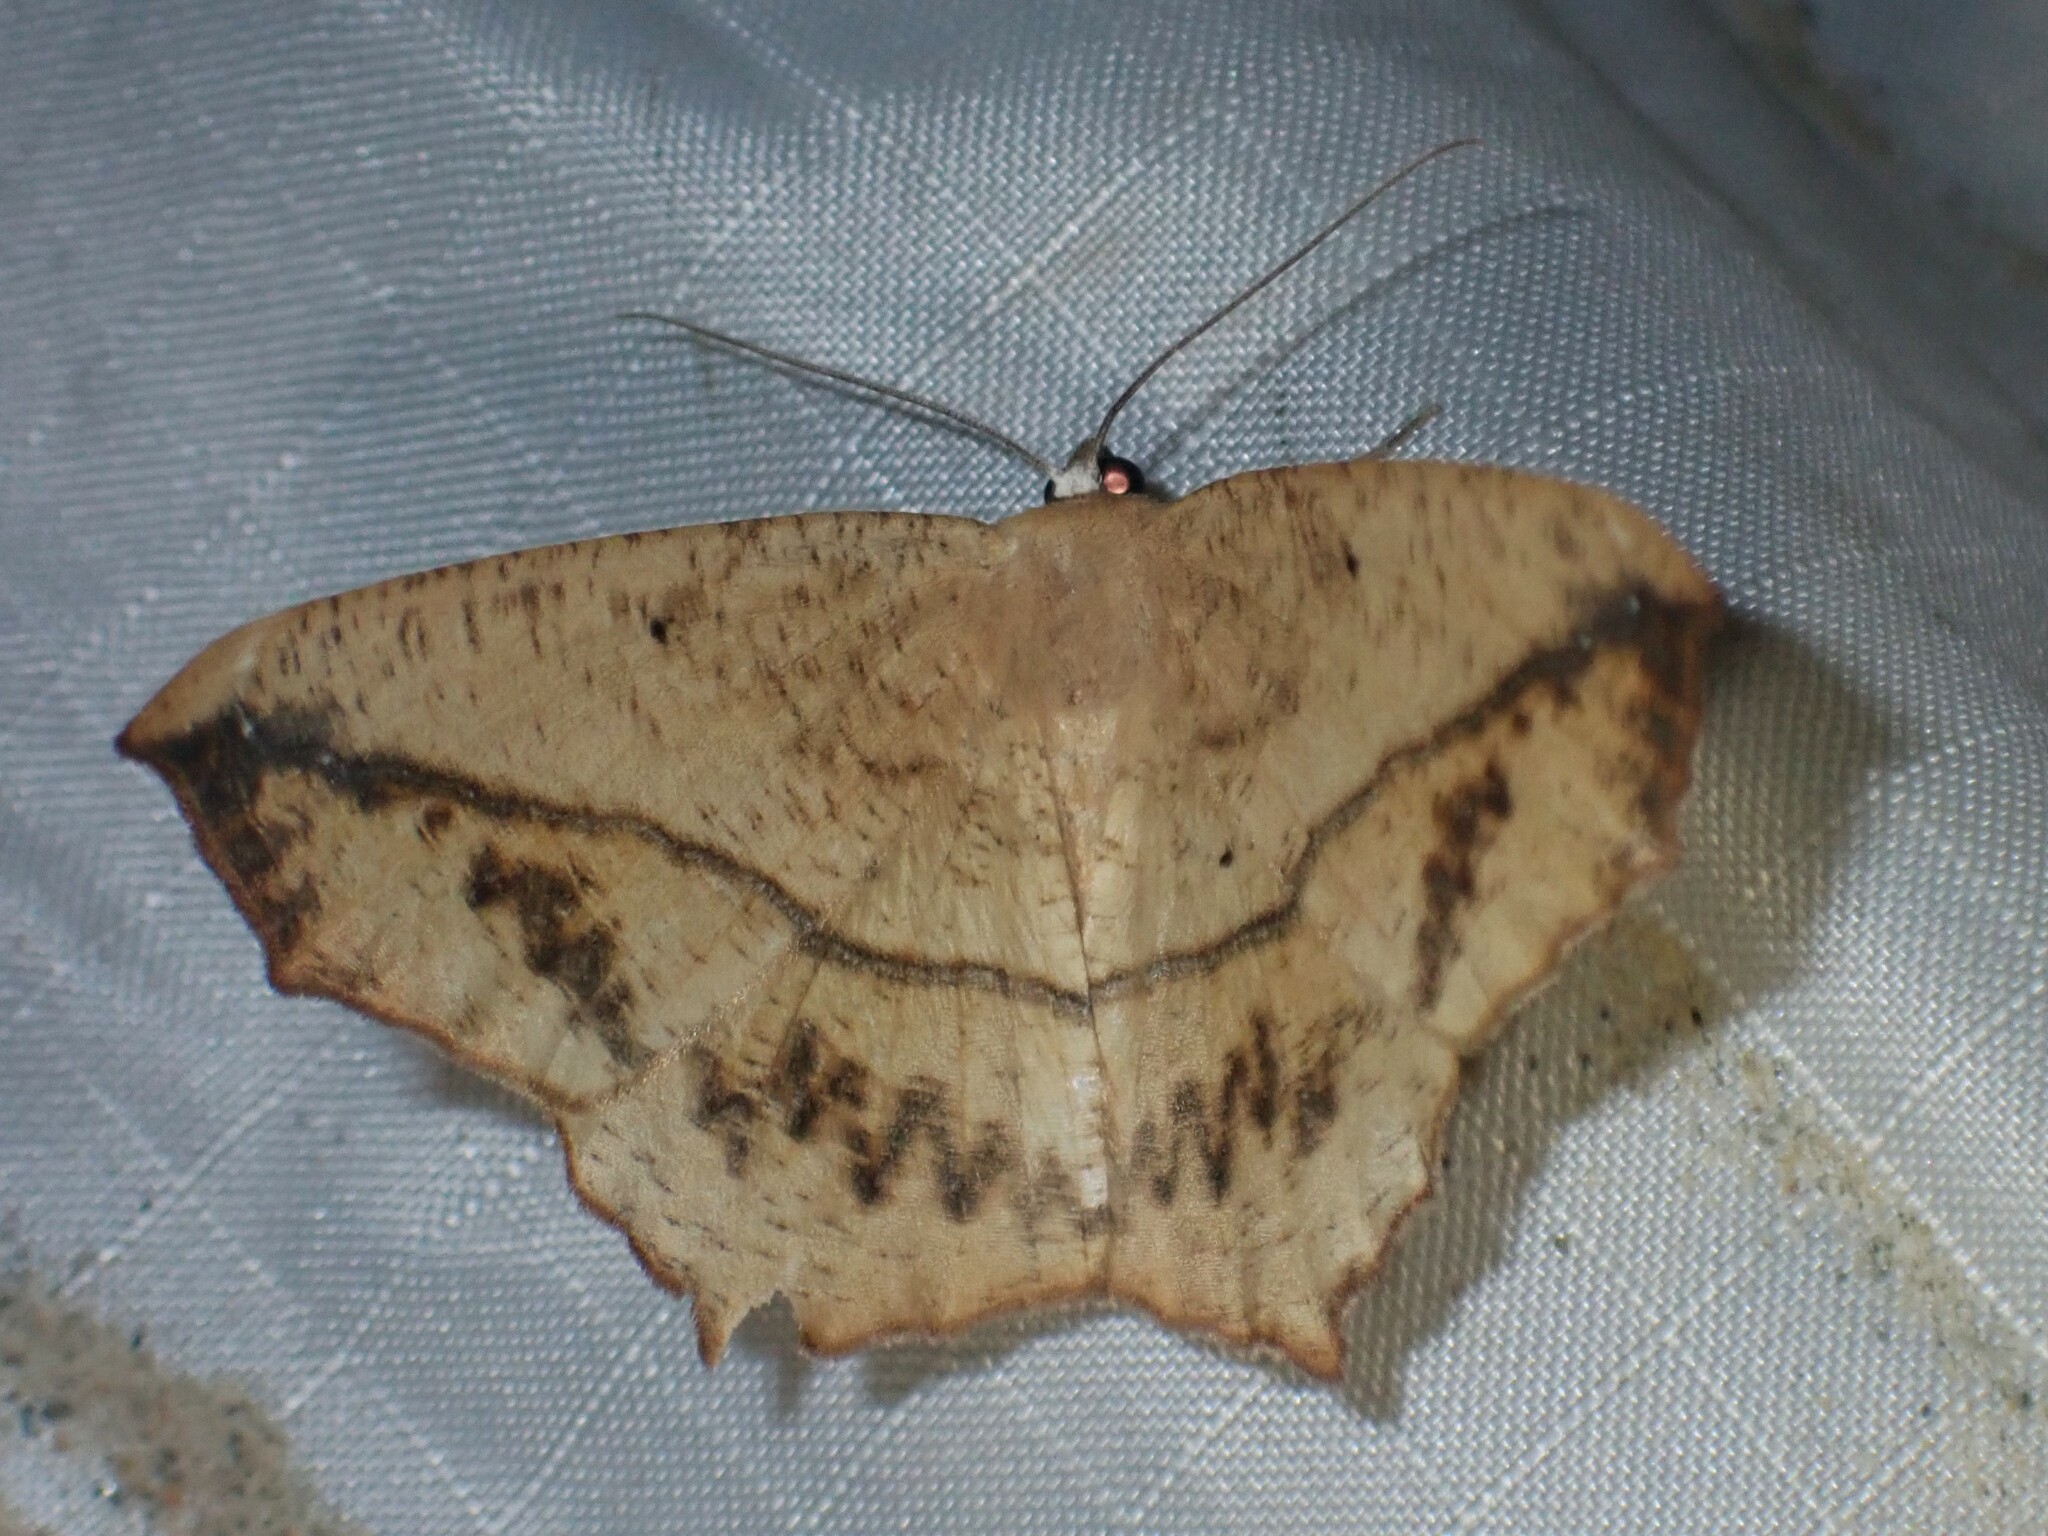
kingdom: Animalia
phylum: Arthropoda
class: Insecta
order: Lepidoptera
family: Geometridae
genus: Prochoerodes
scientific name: Prochoerodes lineola
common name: Large maple spanworm
